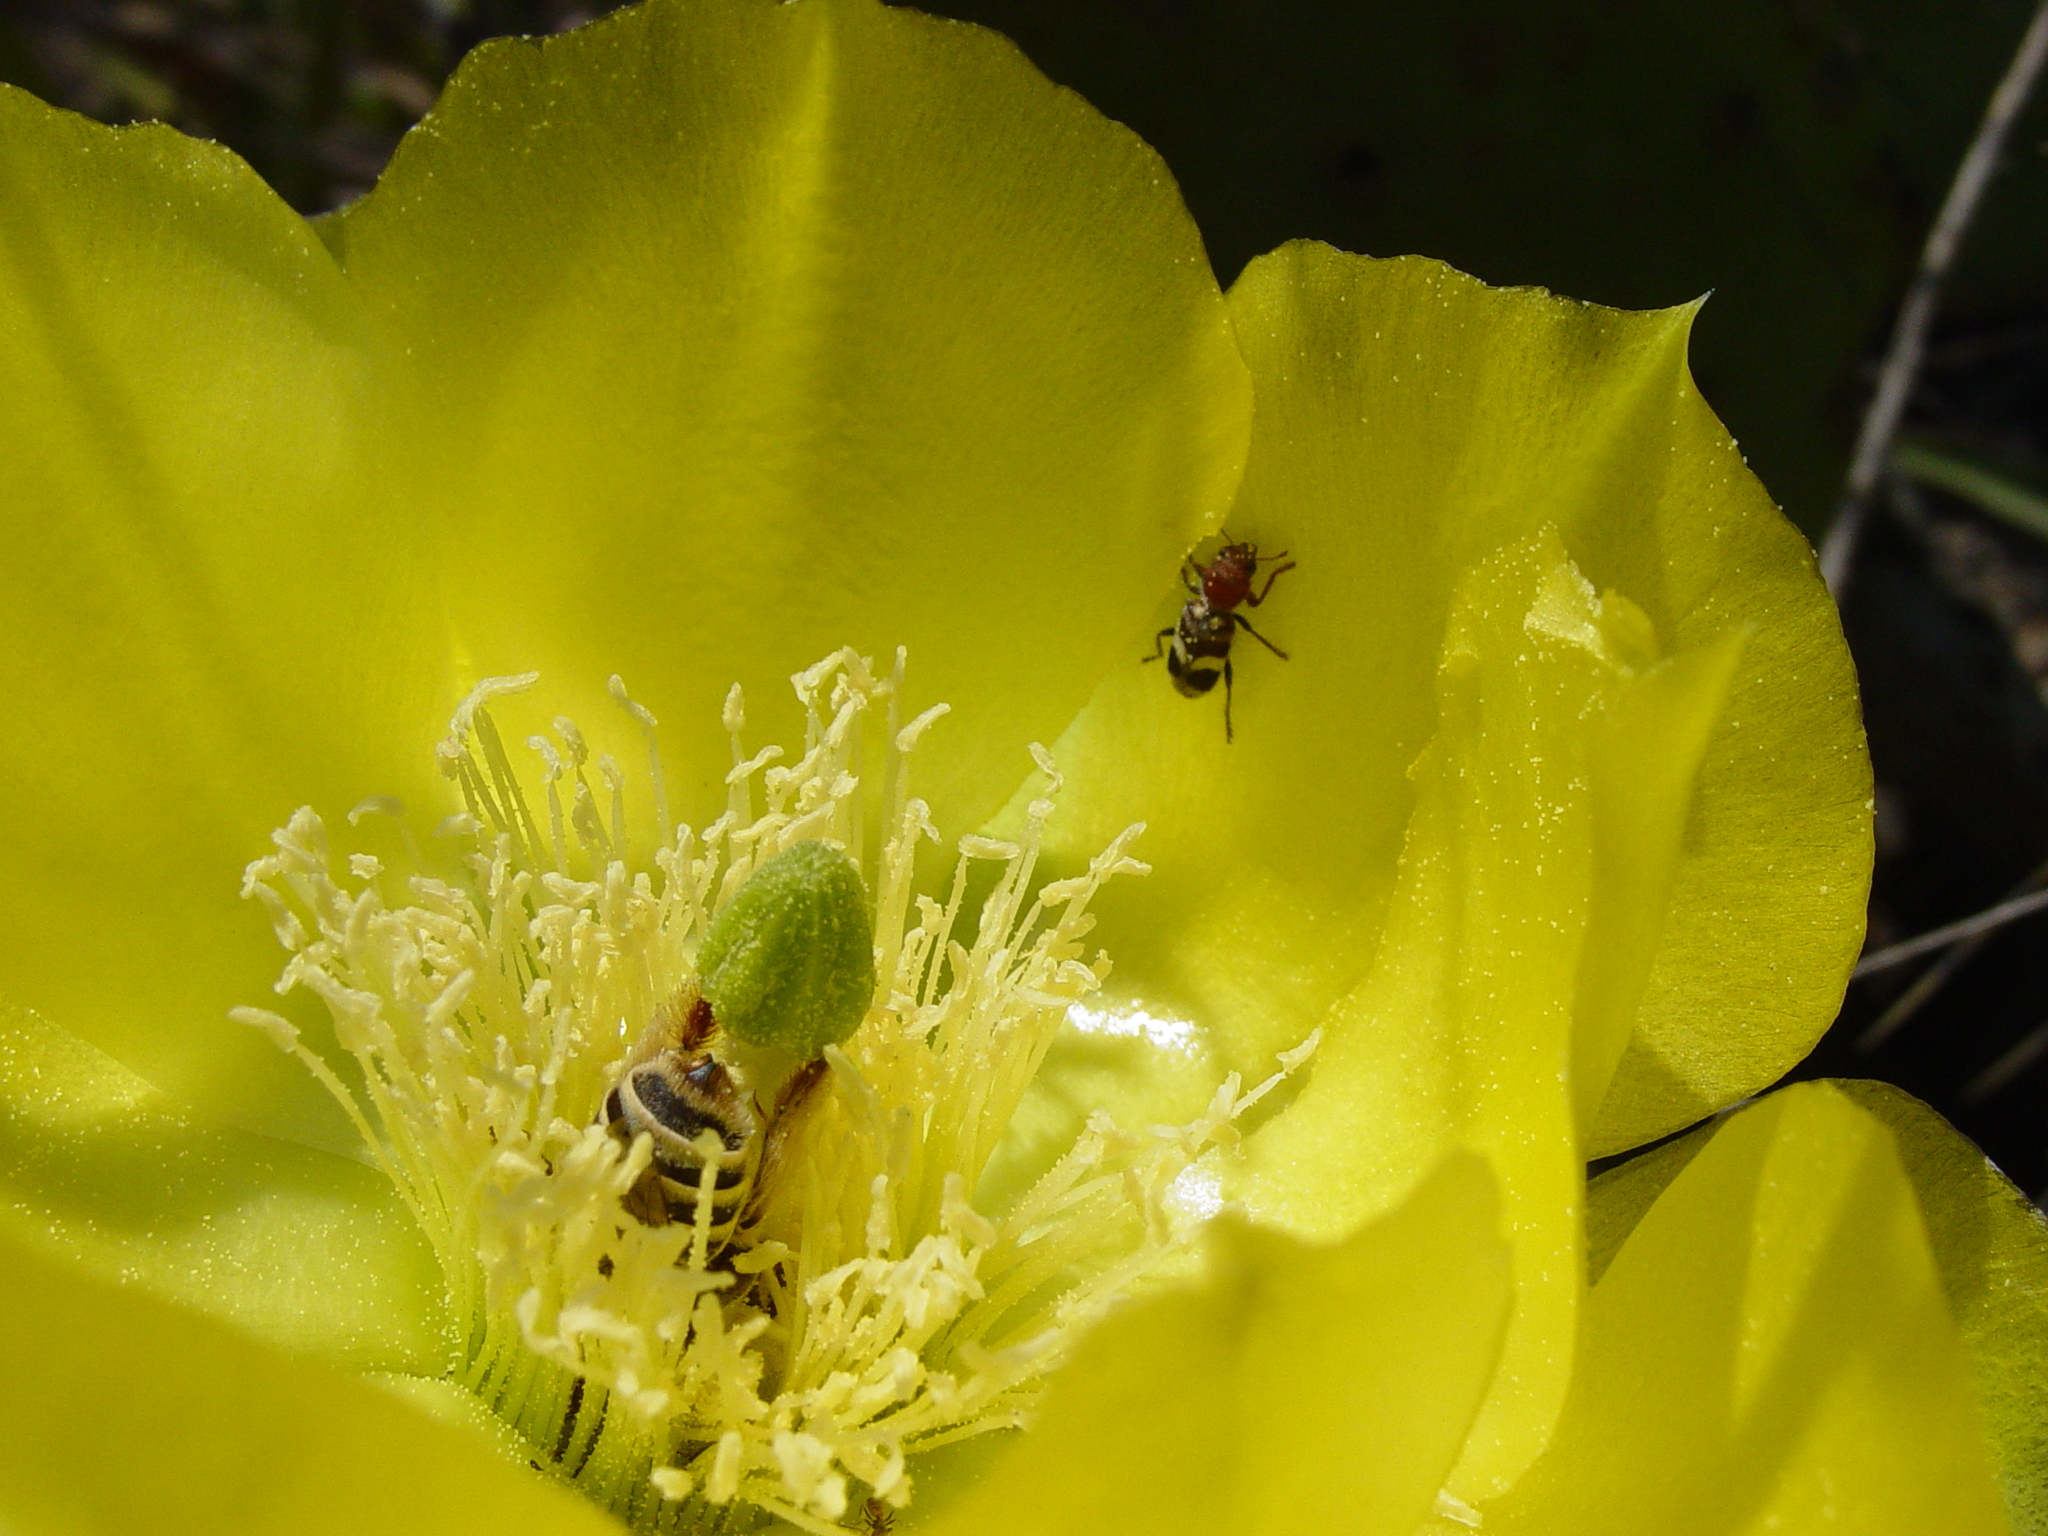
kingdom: Animalia
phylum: Arthropoda
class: Insecta
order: Coleoptera
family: Cleridae
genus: Enoclerus
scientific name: Enoclerus laetus
